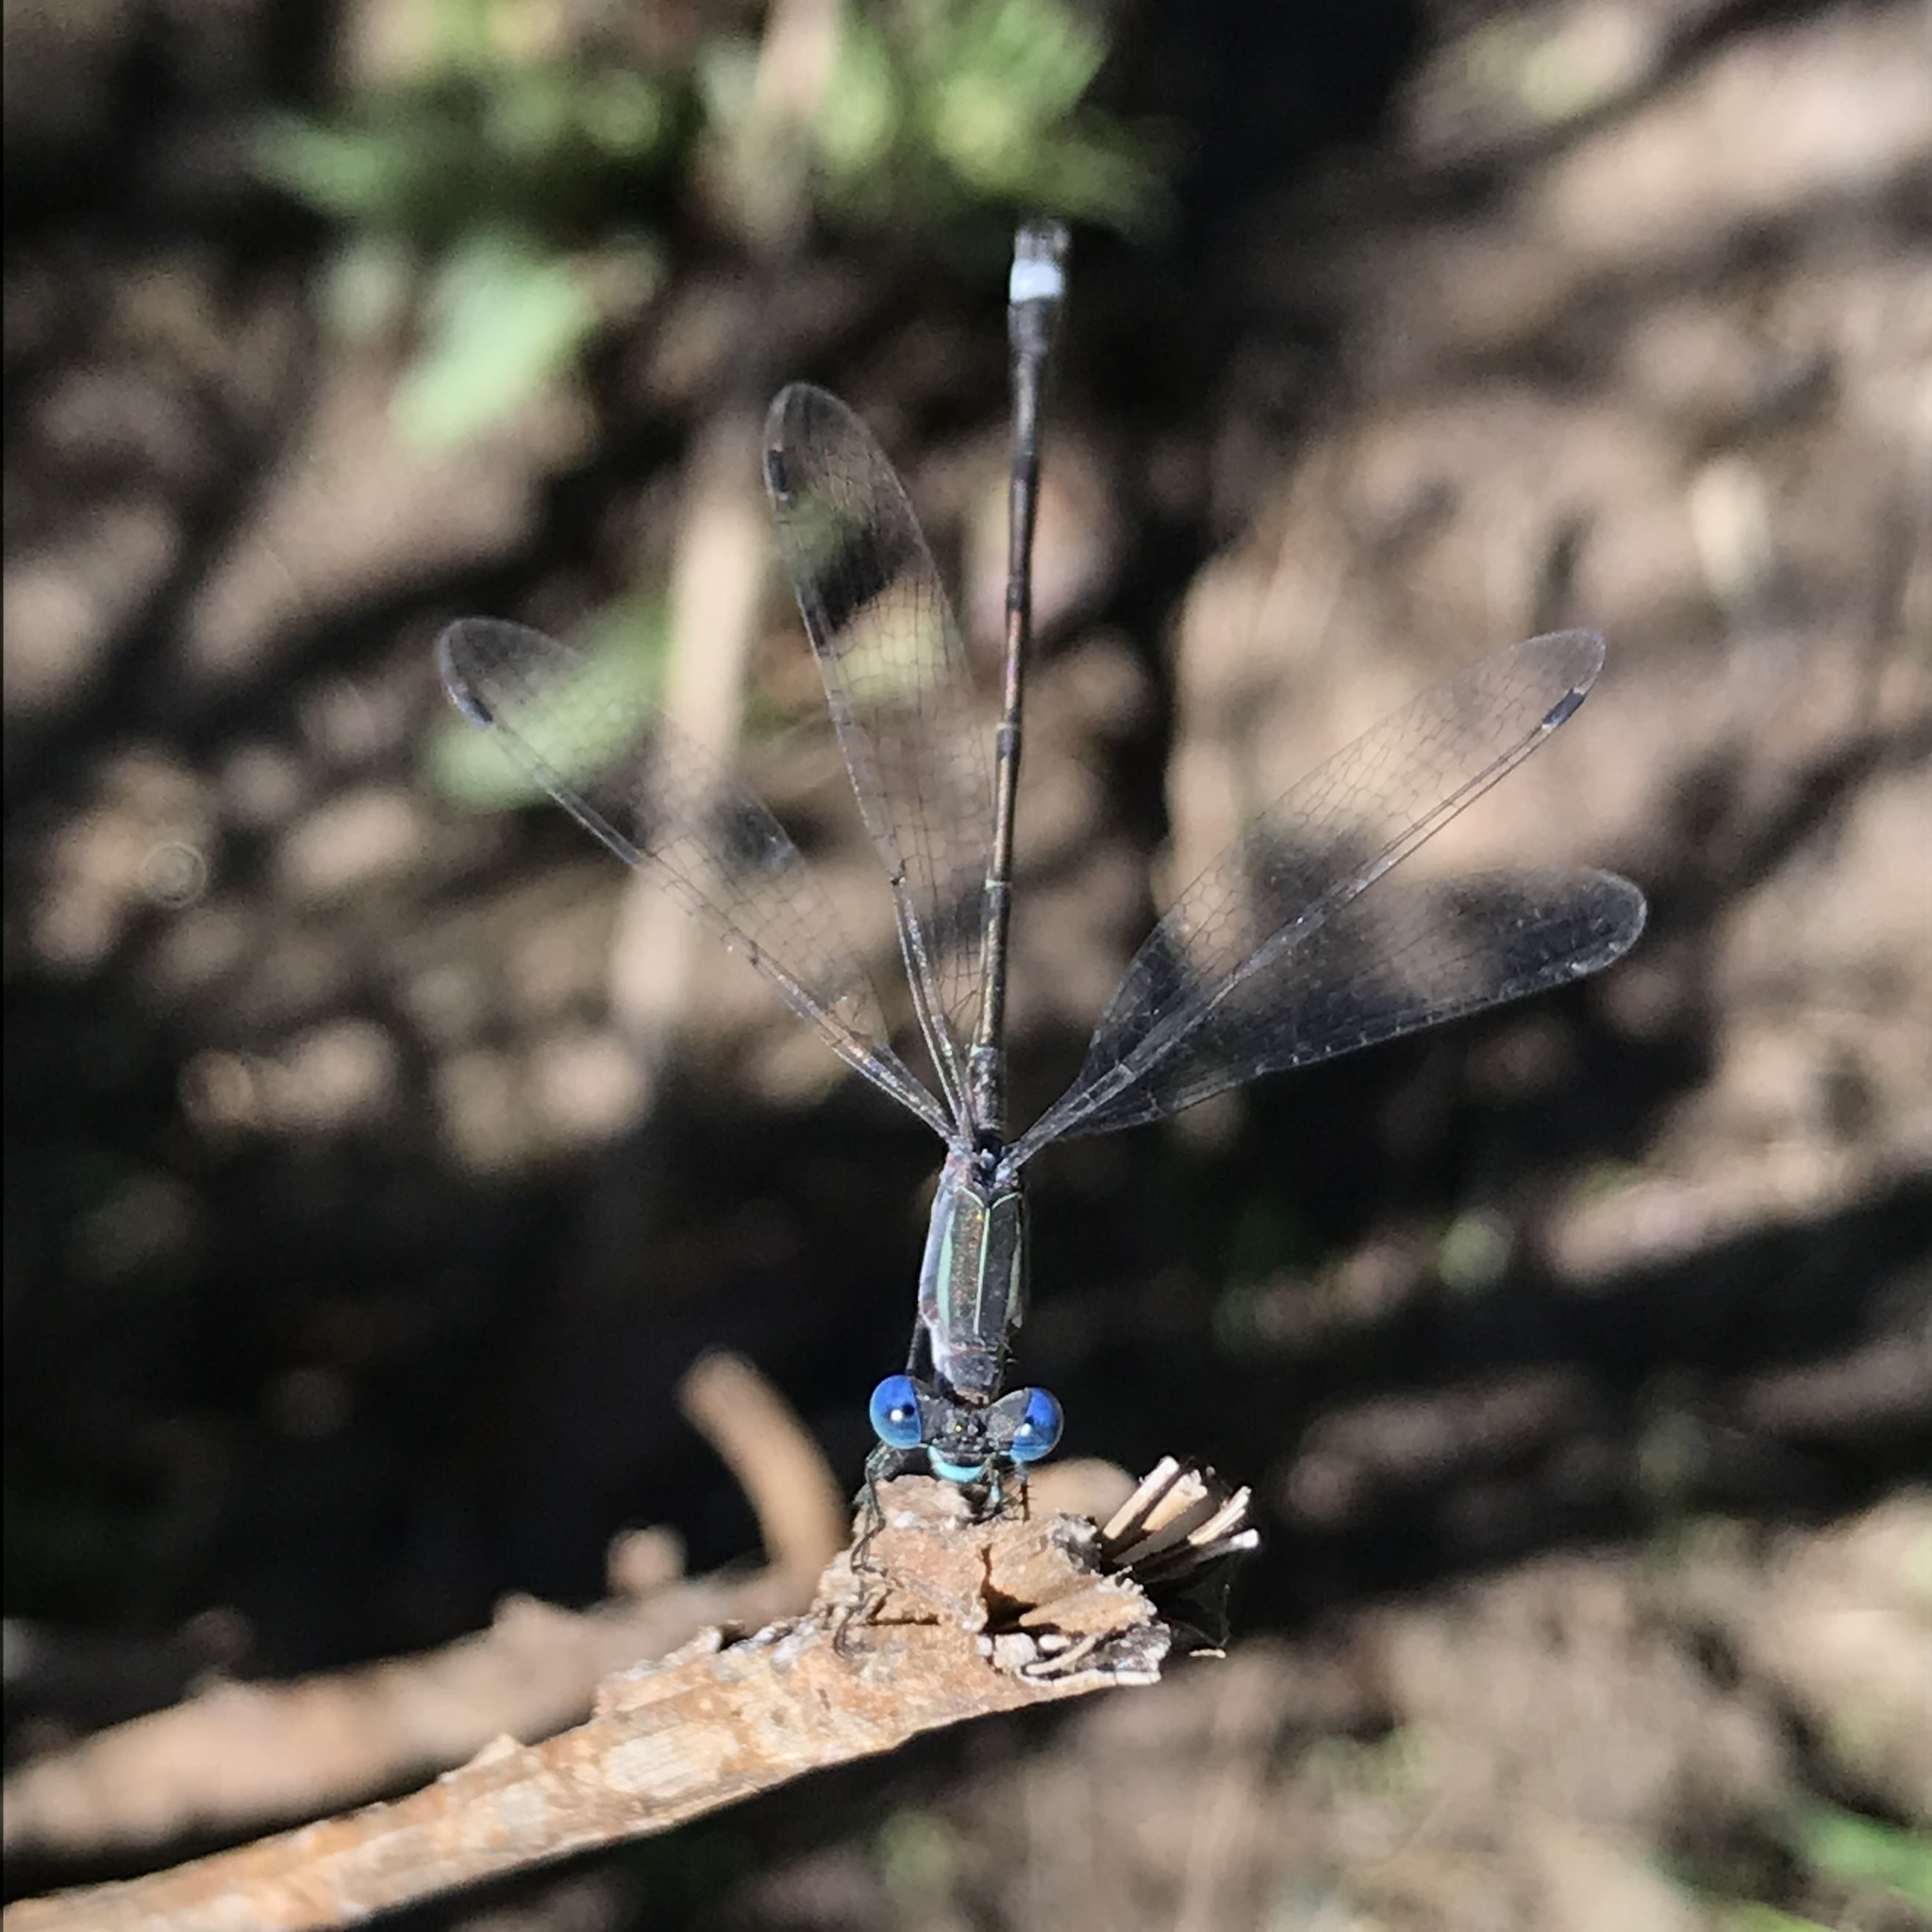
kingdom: Animalia
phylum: Arthropoda
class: Insecta
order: Odonata
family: Lestidae
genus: Lestes
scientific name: Lestes australis
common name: Southern spreadwing
